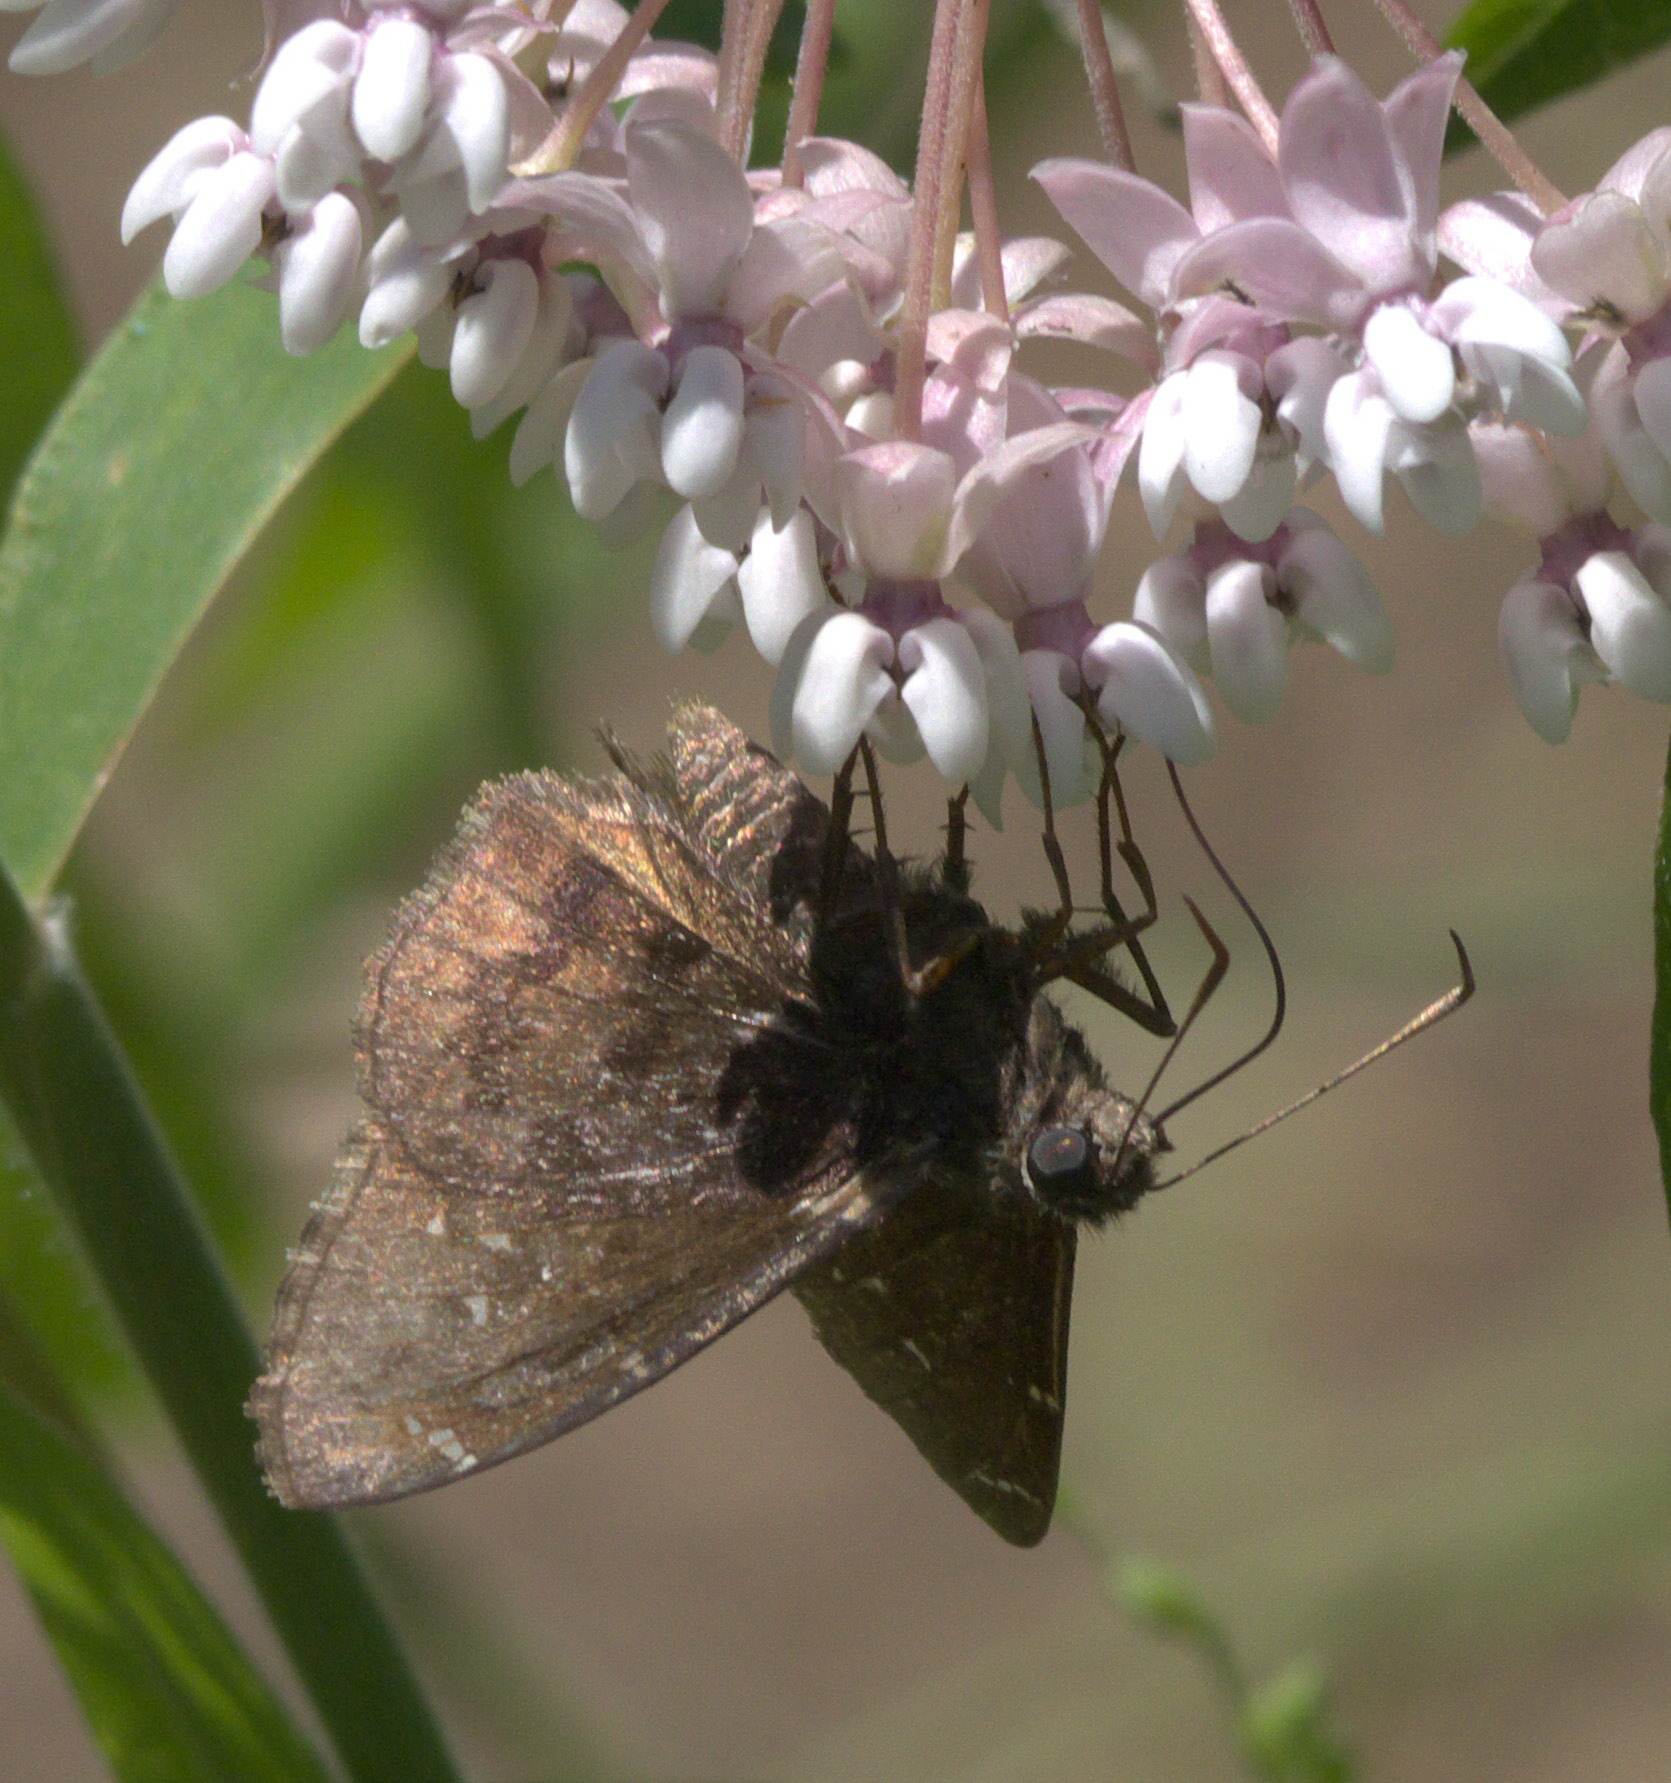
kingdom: Animalia
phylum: Arthropoda
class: Insecta
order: Lepidoptera
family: Hesperiidae
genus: Thorybes
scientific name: Thorybes pylades
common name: Northern cloudywing
